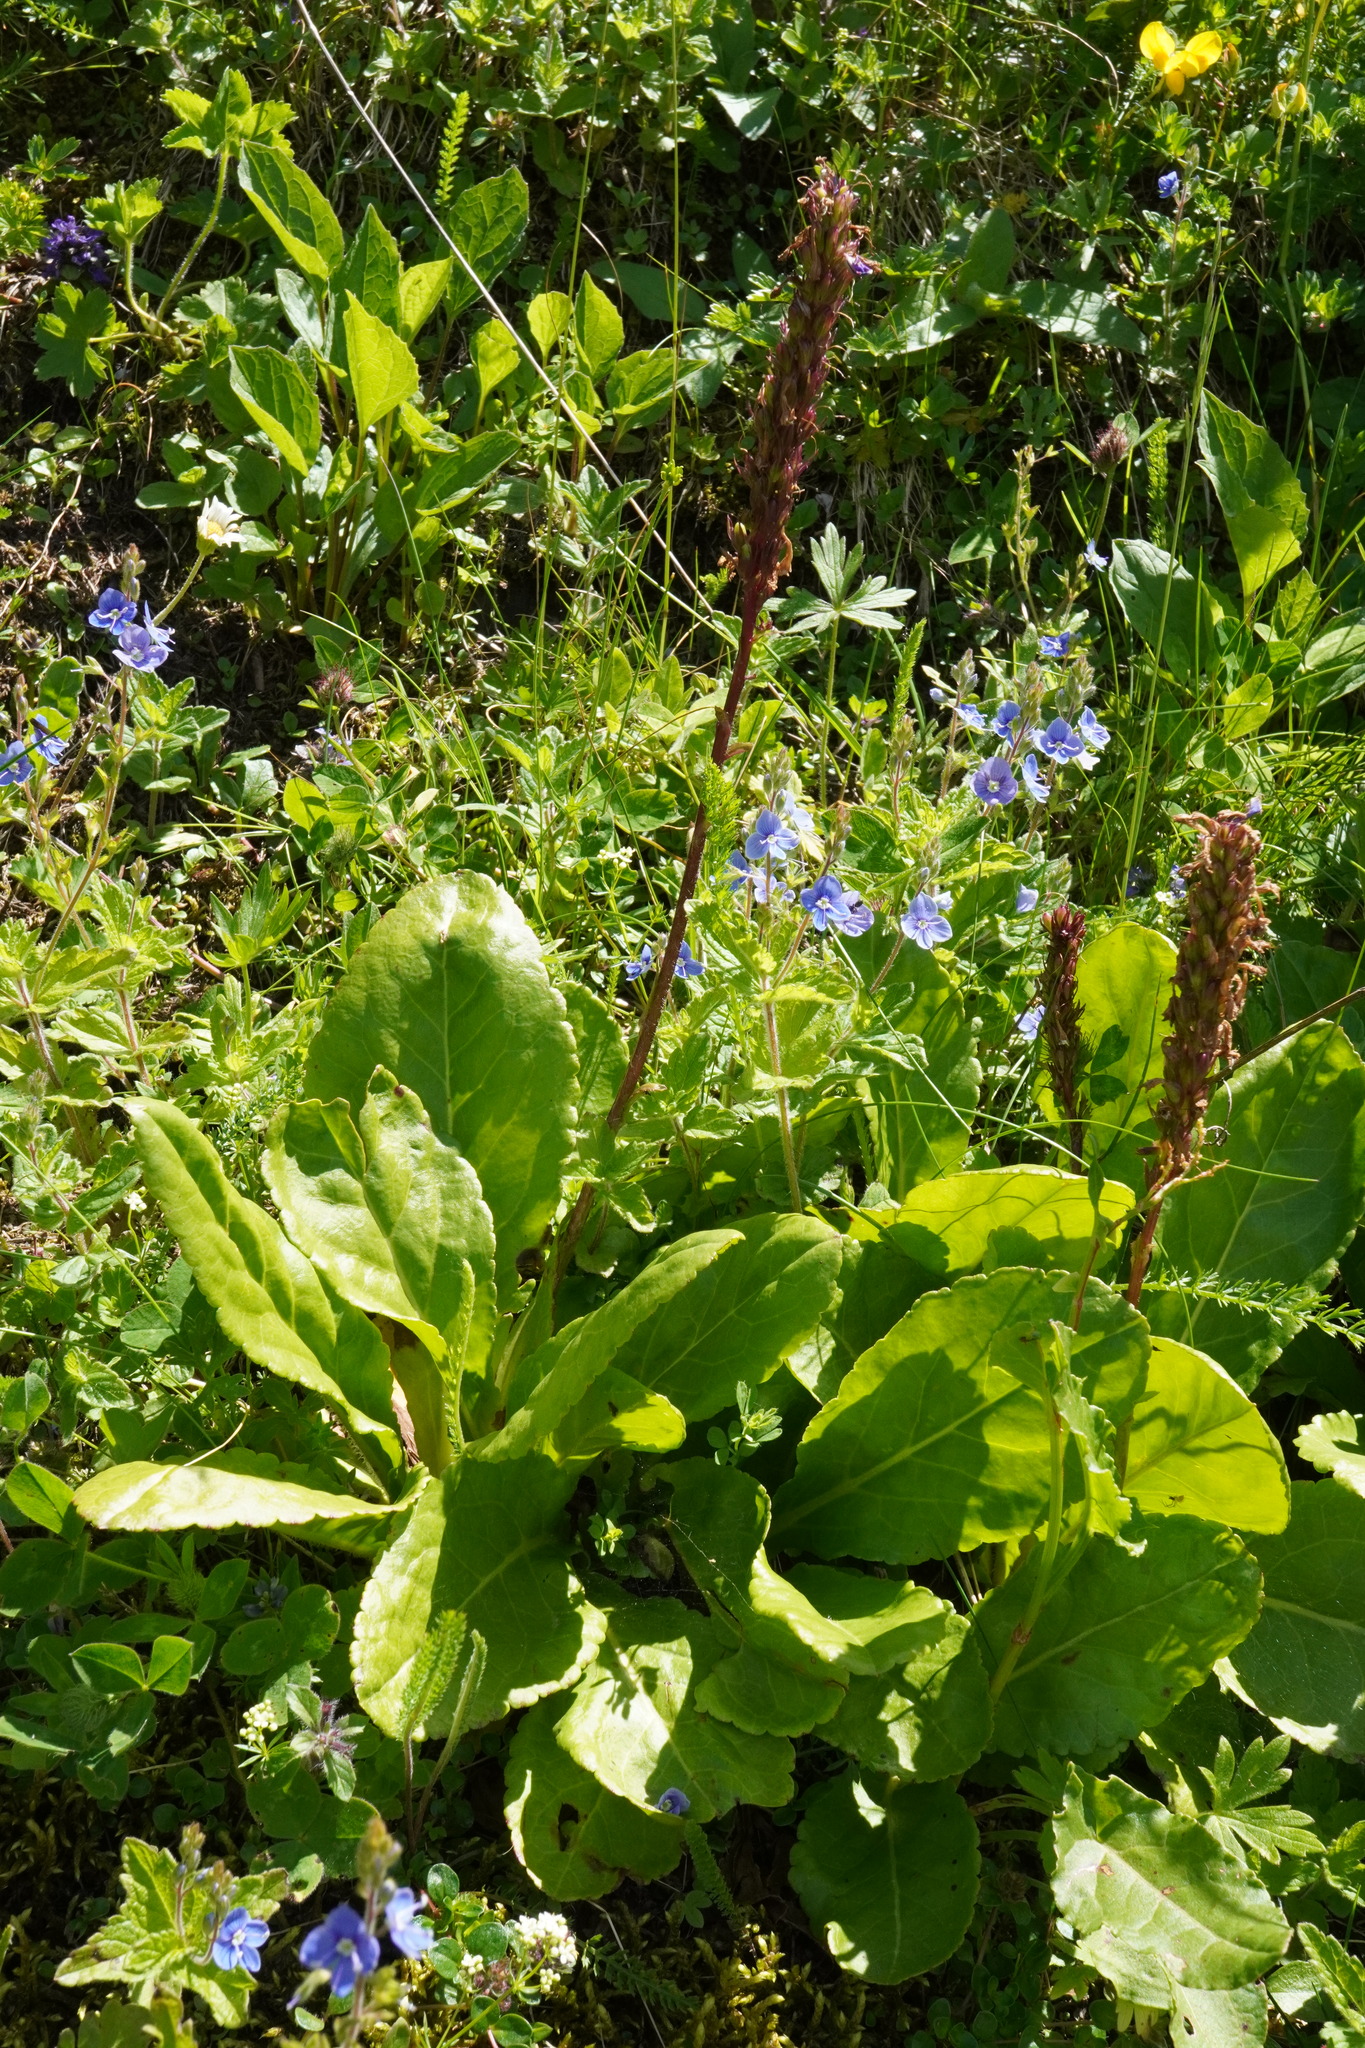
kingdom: Plantae
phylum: Tracheophyta
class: Magnoliopsida
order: Lamiales
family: Plantaginaceae
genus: Wulfenia
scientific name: Wulfenia carinthiaca
